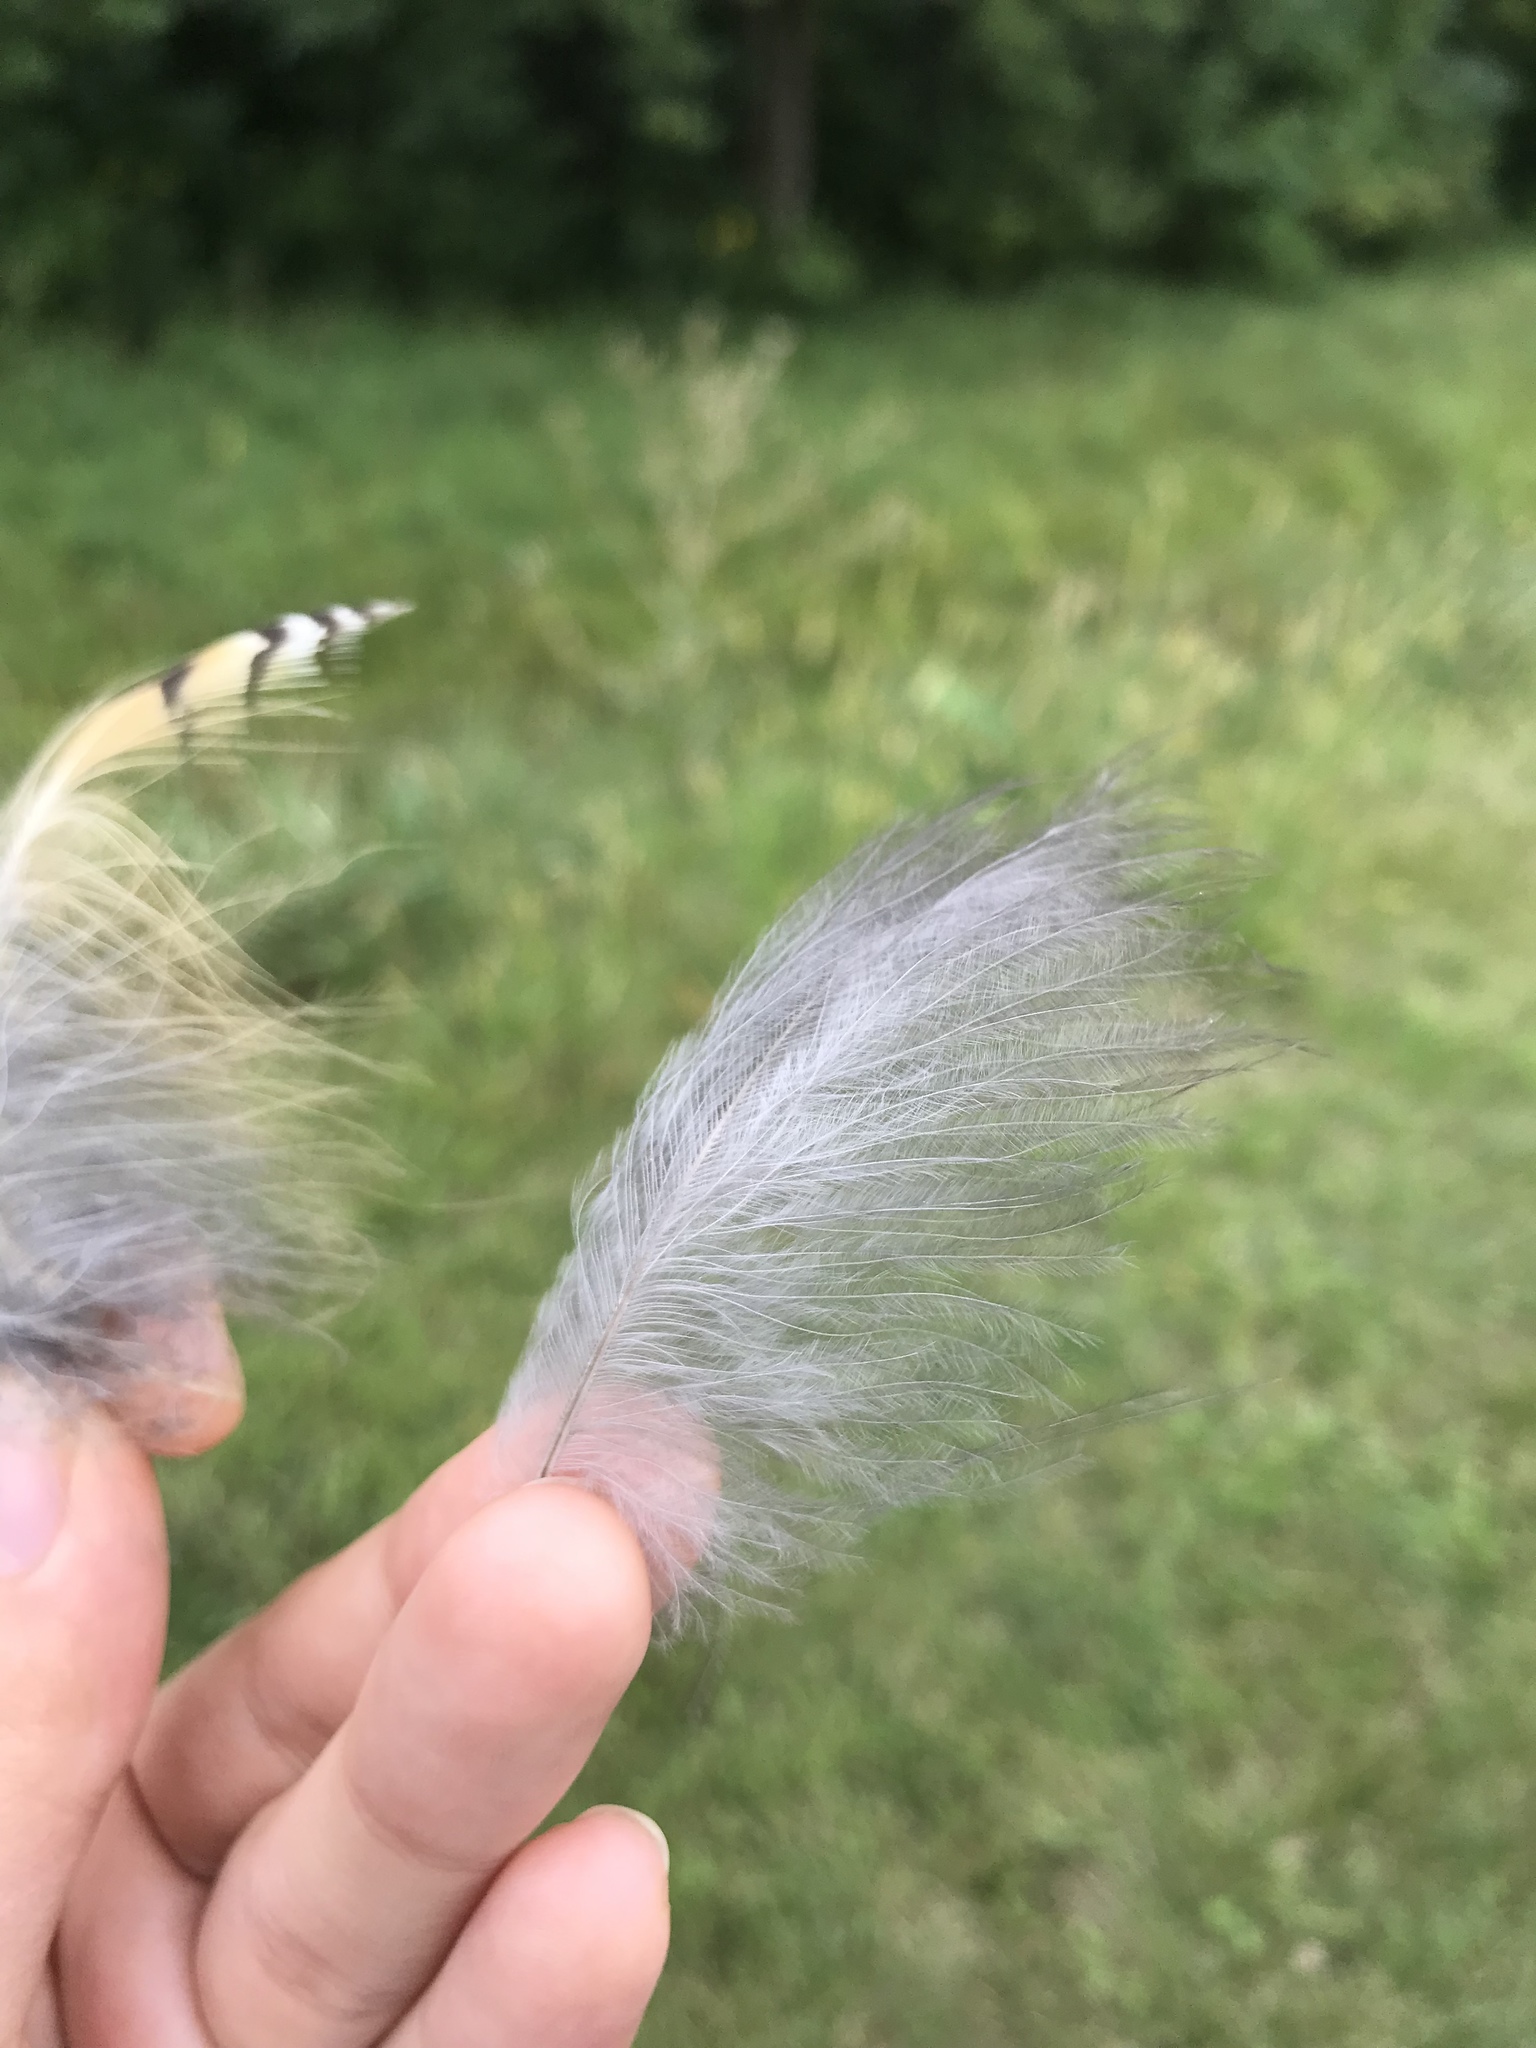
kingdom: Animalia
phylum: Chordata
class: Aves
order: Passeriformes
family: Corvidae
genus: Corvus
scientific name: Corvus brachyrhynchos
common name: American crow
